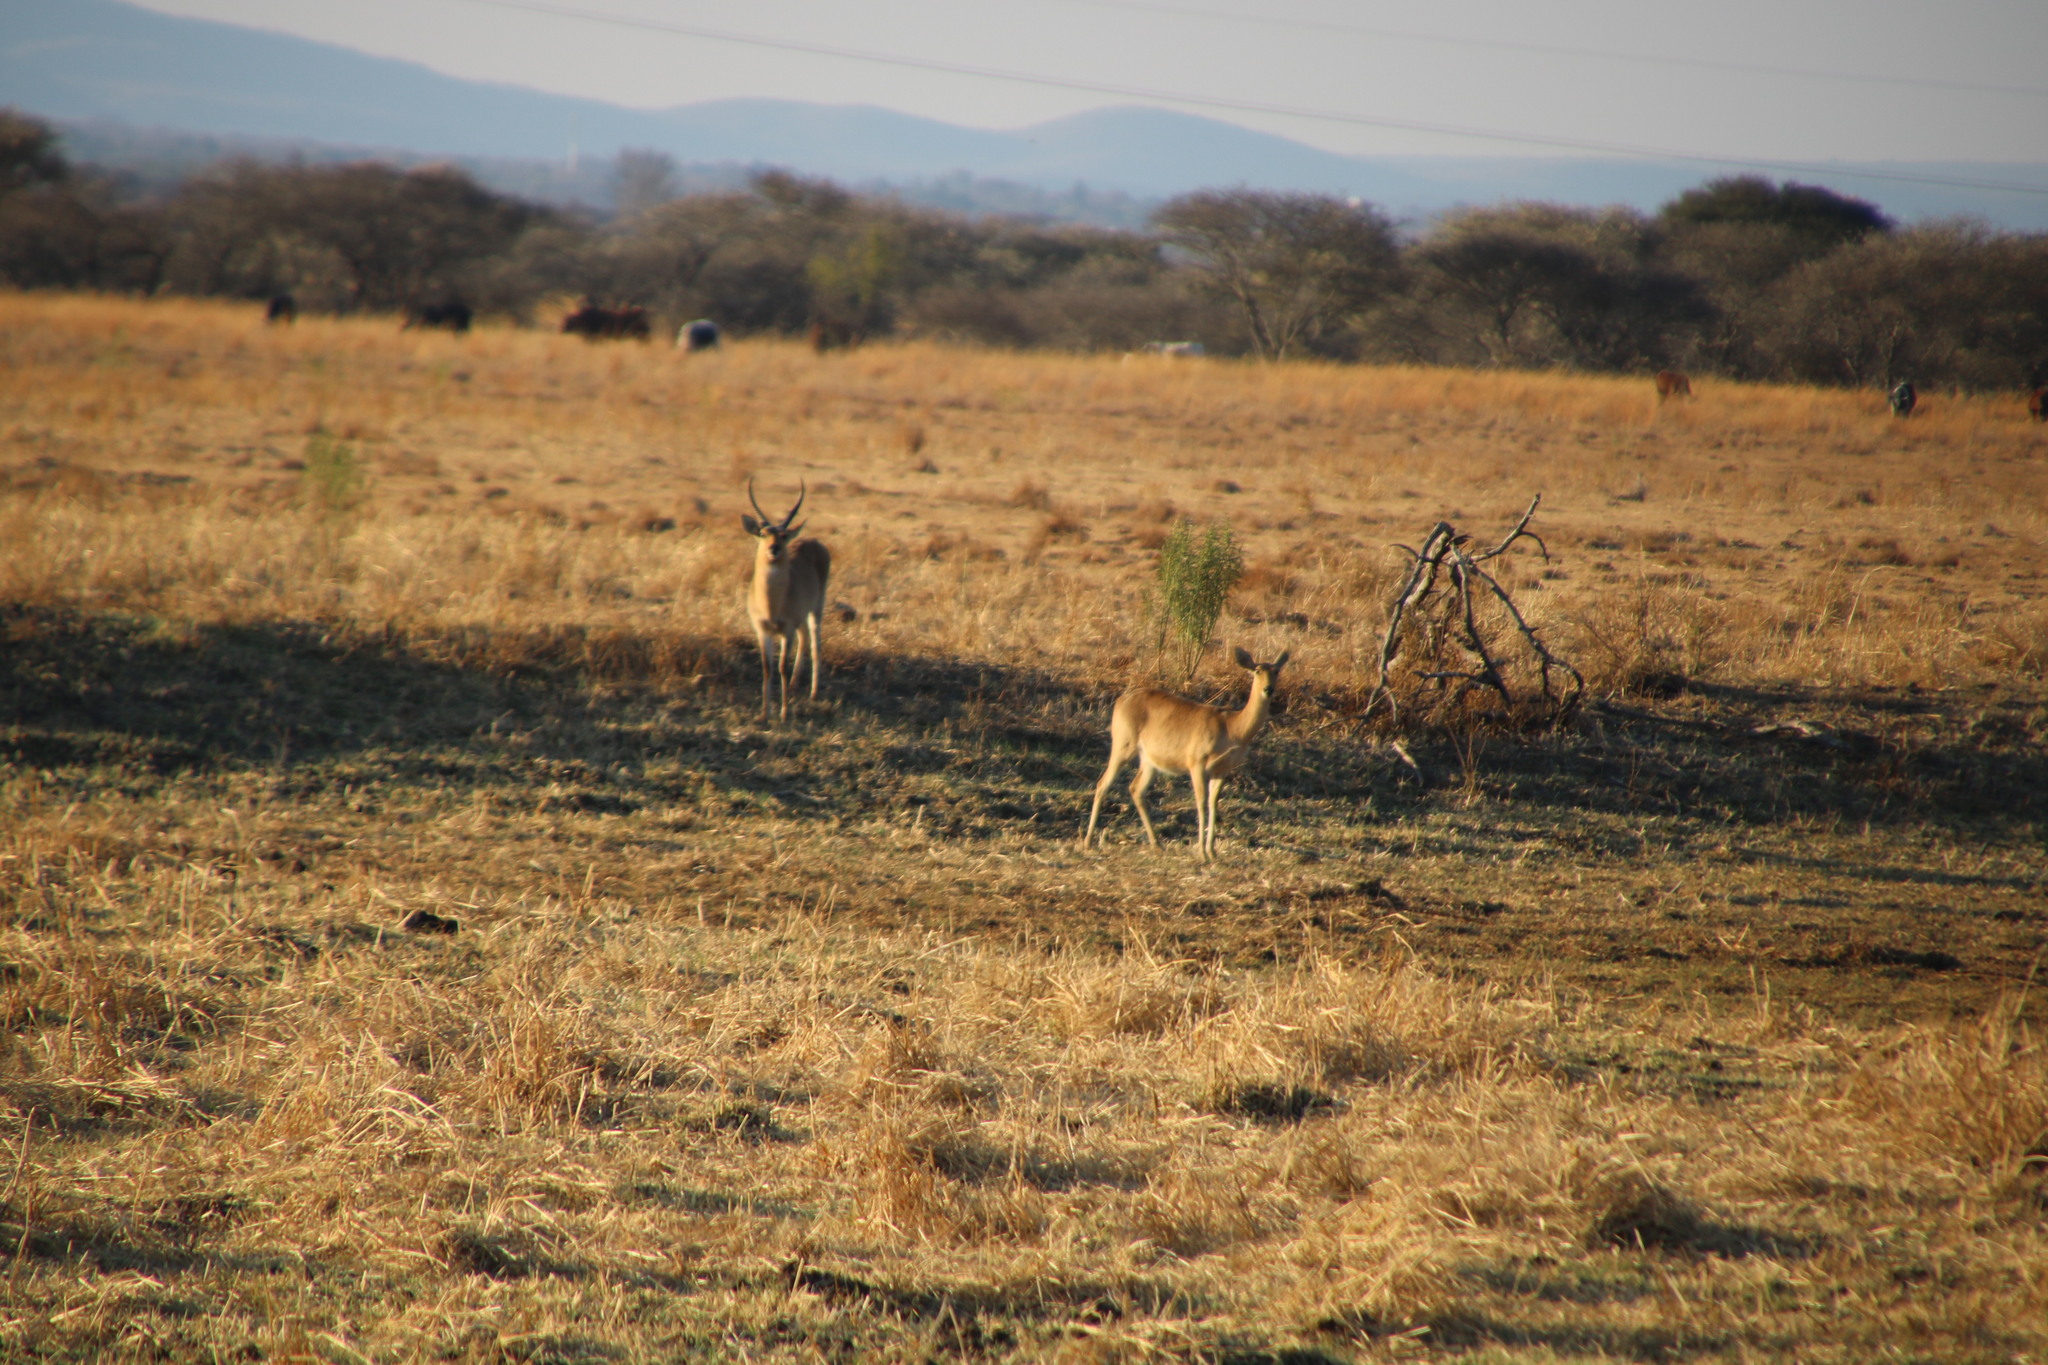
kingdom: Animalia
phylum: Chordata
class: Mammalia
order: Artiodactyla
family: Bovidae
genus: Redunca
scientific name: Redunca arundinum
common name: Southern reedbuck
